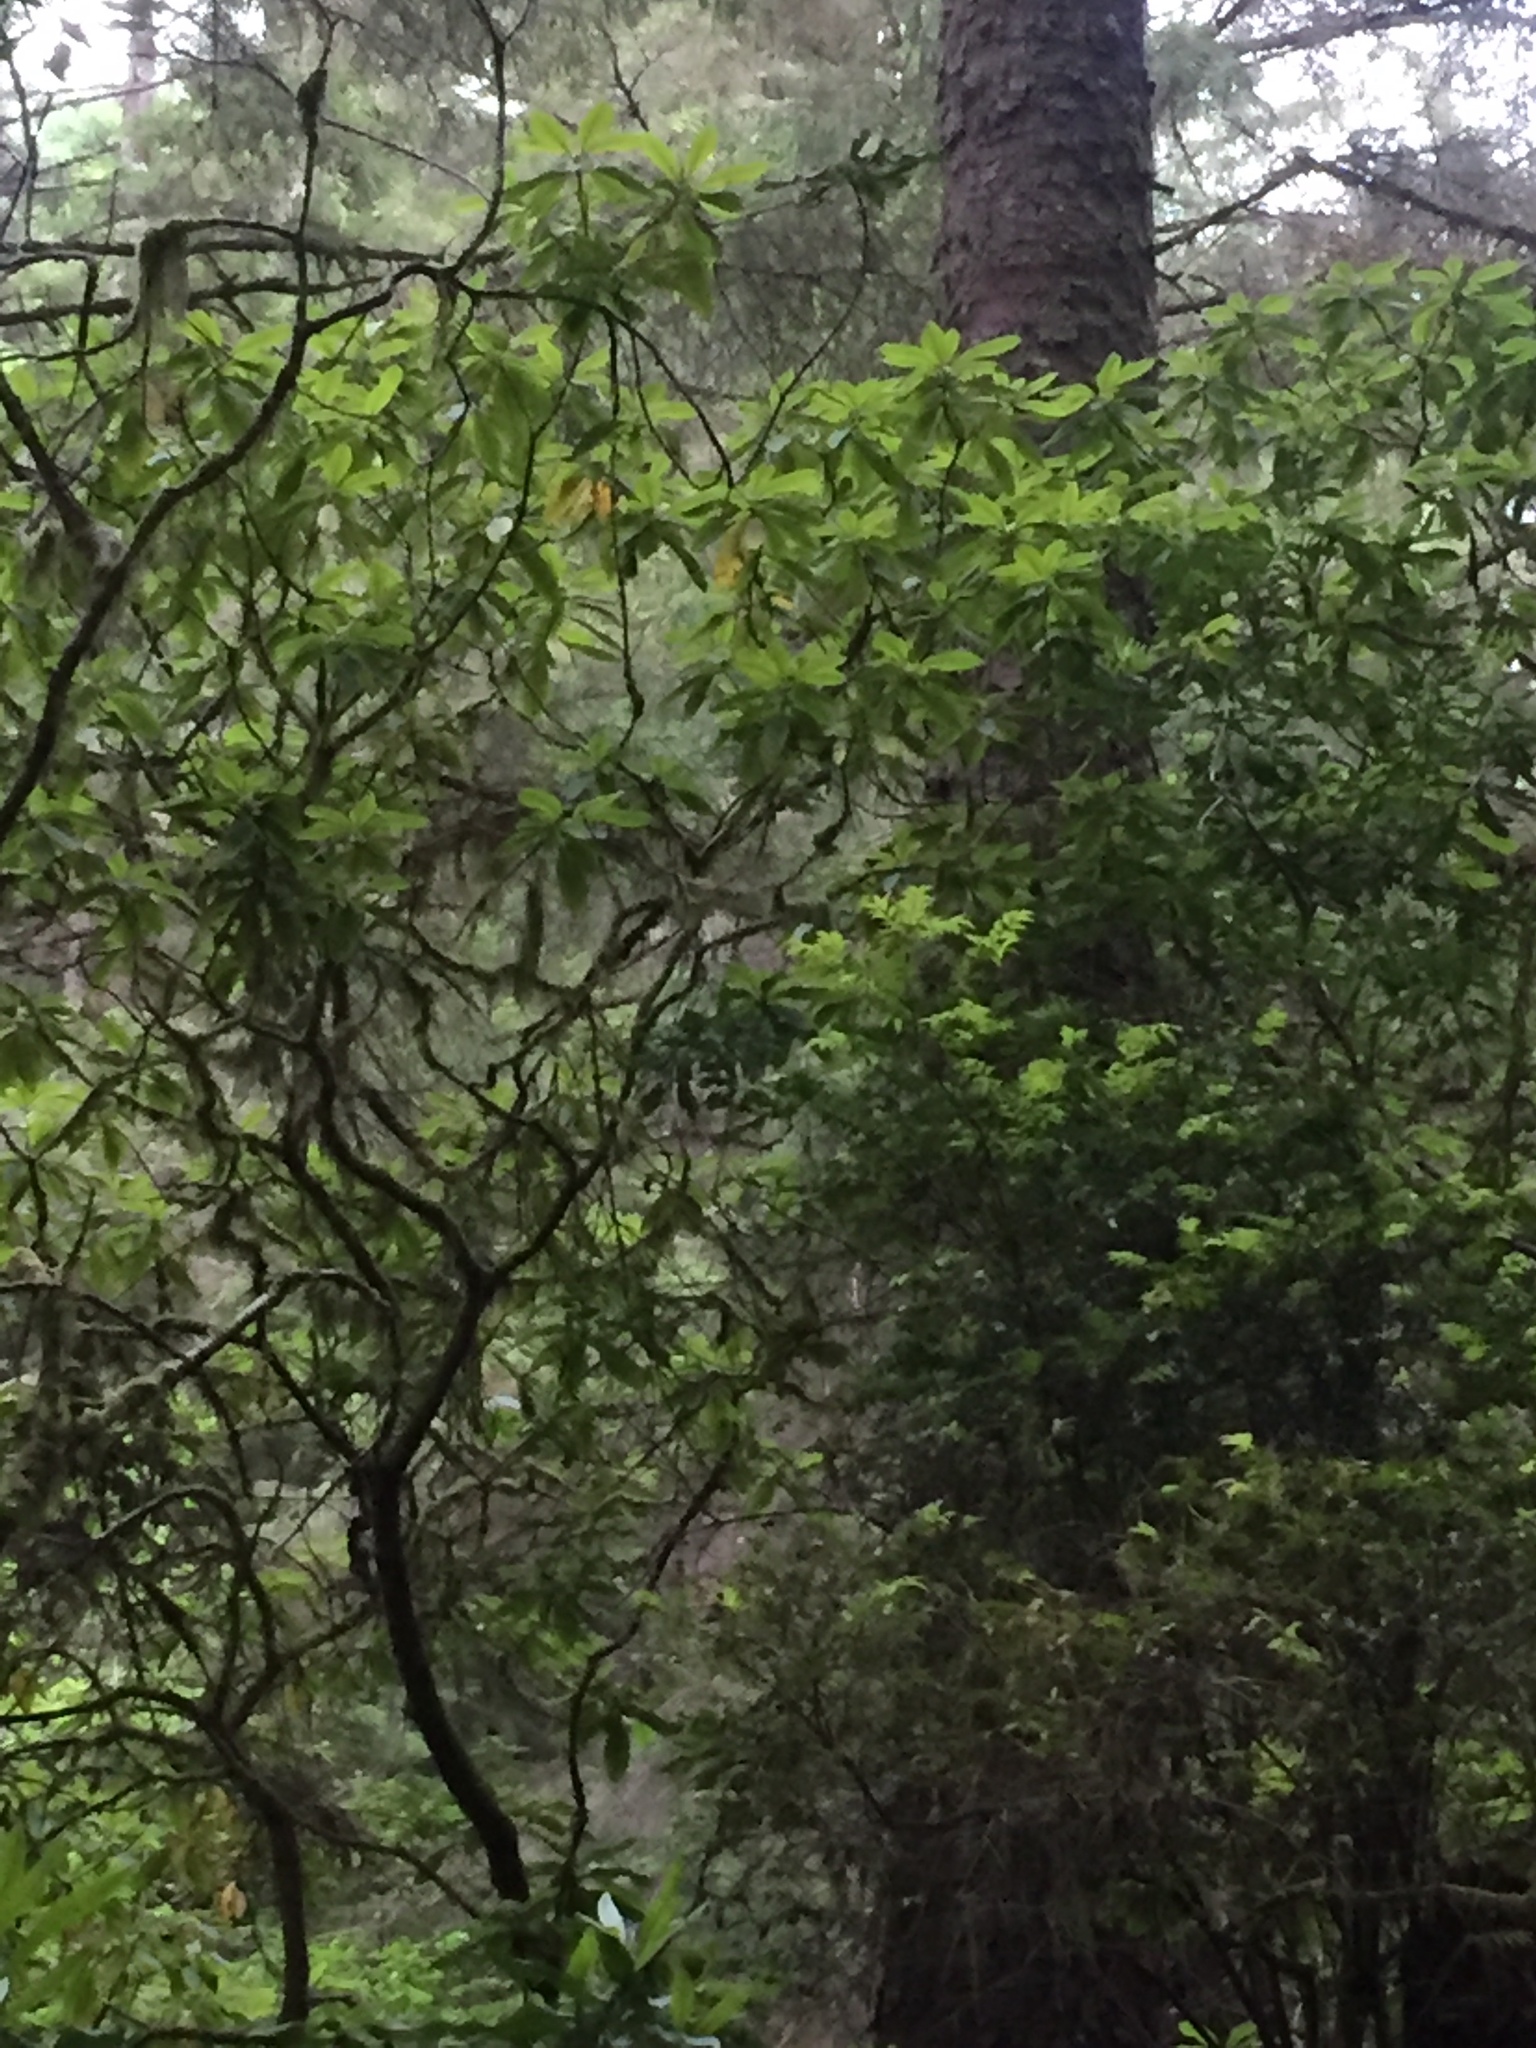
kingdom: Plantae
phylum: Tracheophyta
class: Magnoliopsida
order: Ericales
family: Ericaceae
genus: Rhododendron
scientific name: Rhododendron macrophyllum
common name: California rose bay
